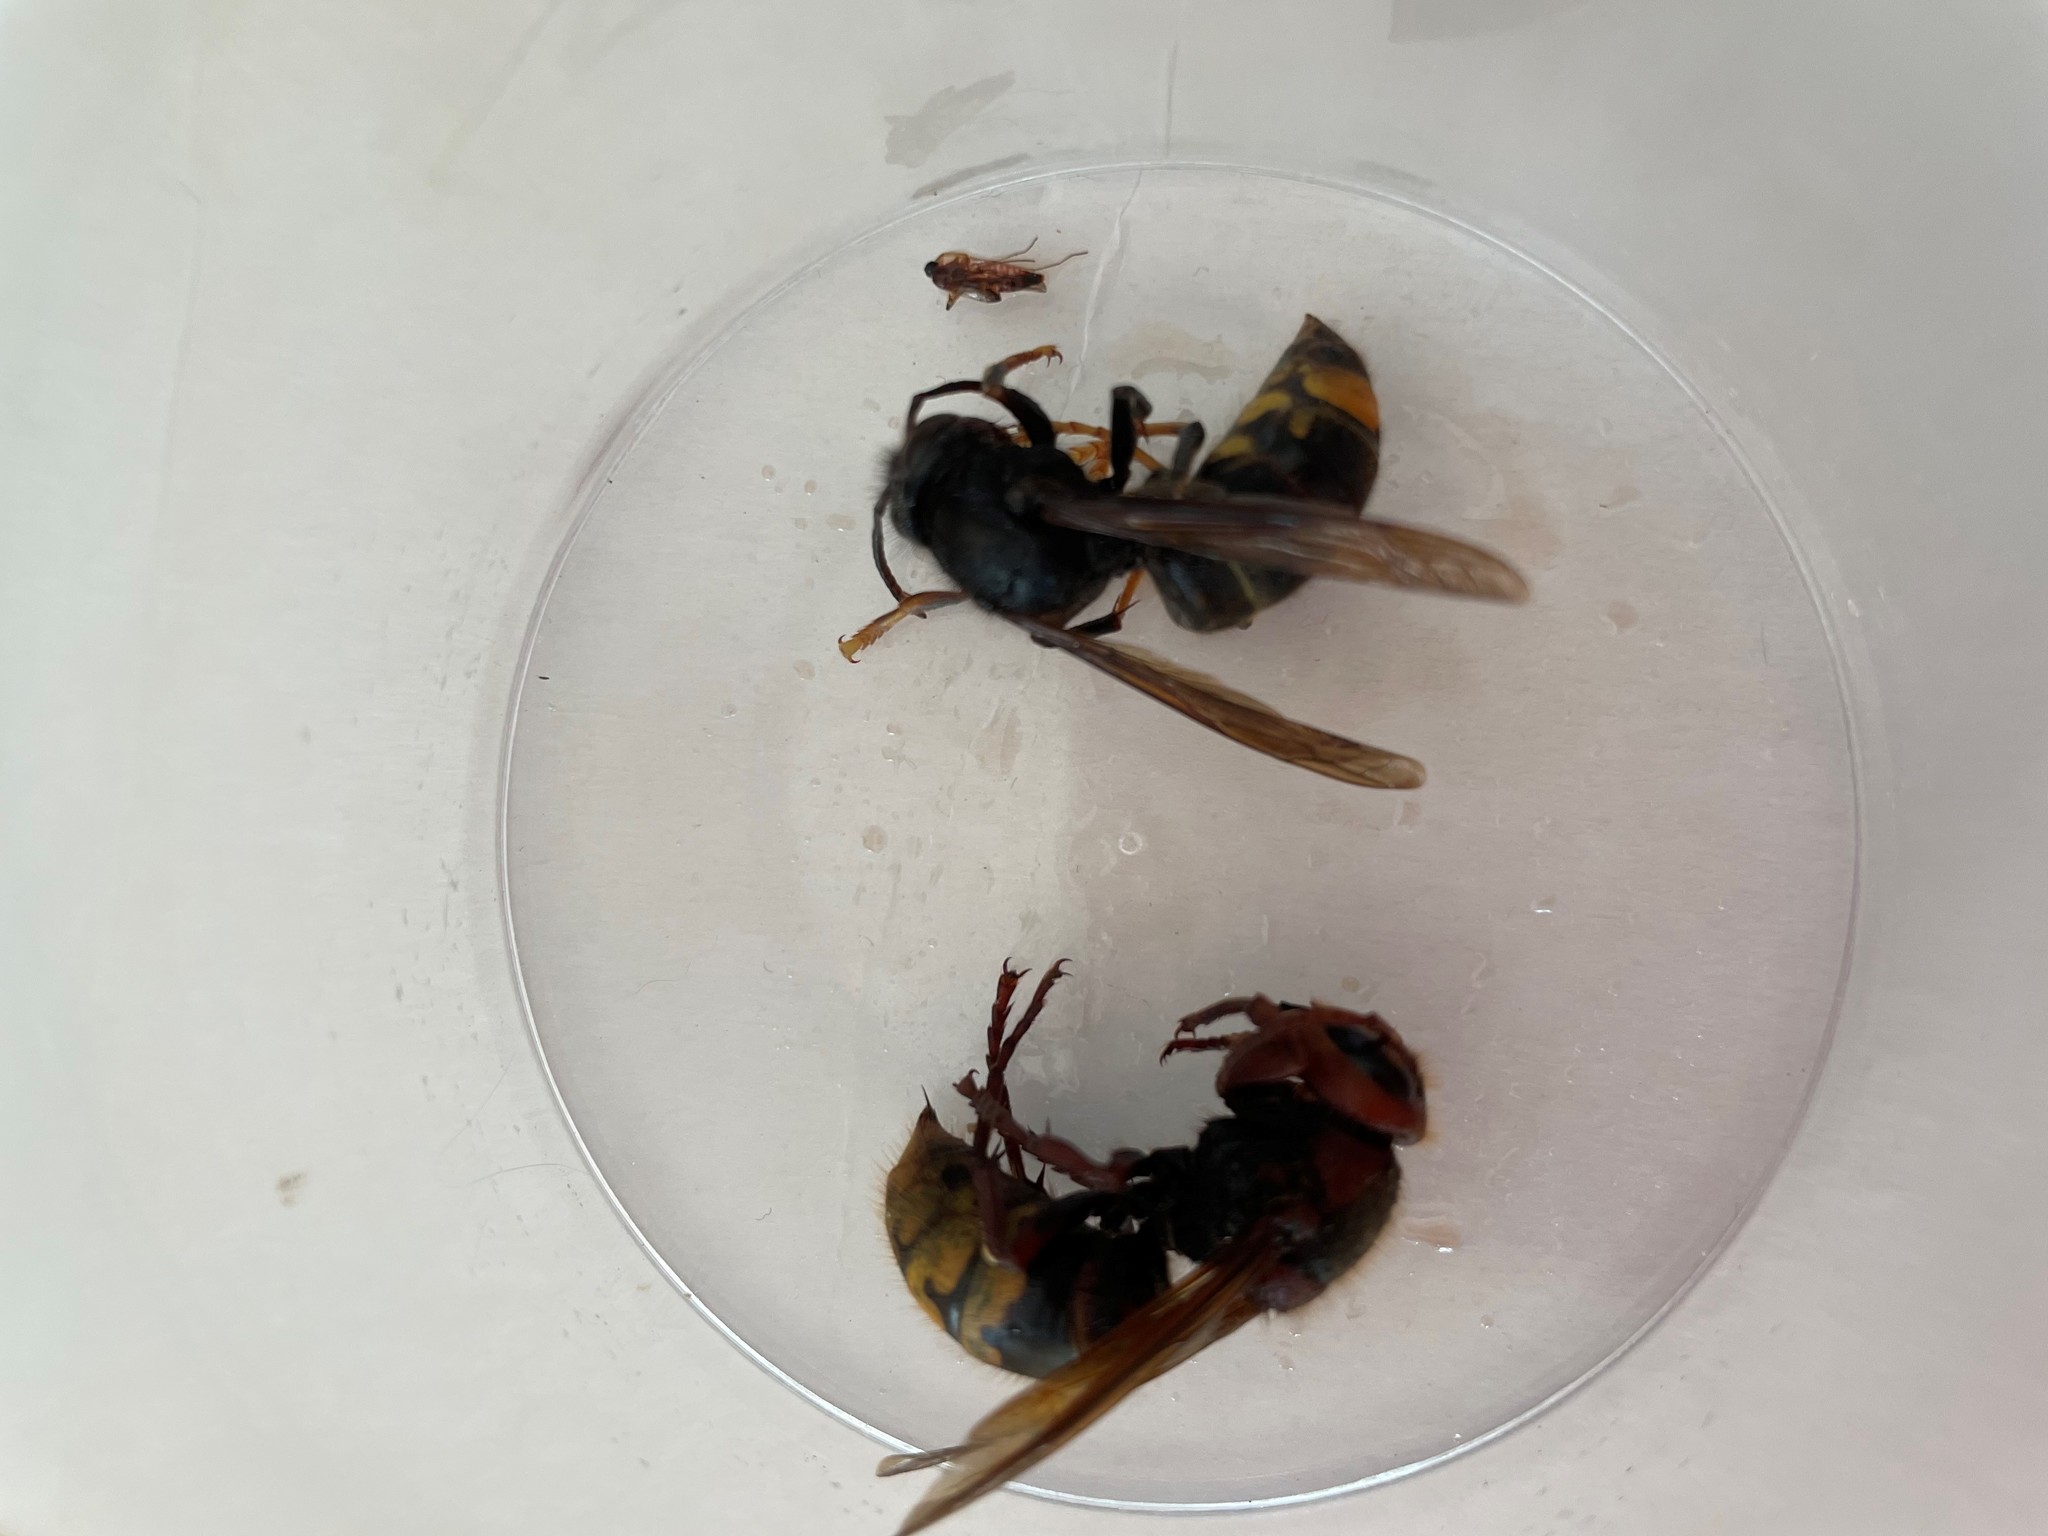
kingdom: Animalia
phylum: Arthropoda
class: Insecta
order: Hymenoptera
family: Vespidae
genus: Vespa
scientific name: Vespa velutina
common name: Asian hornet
